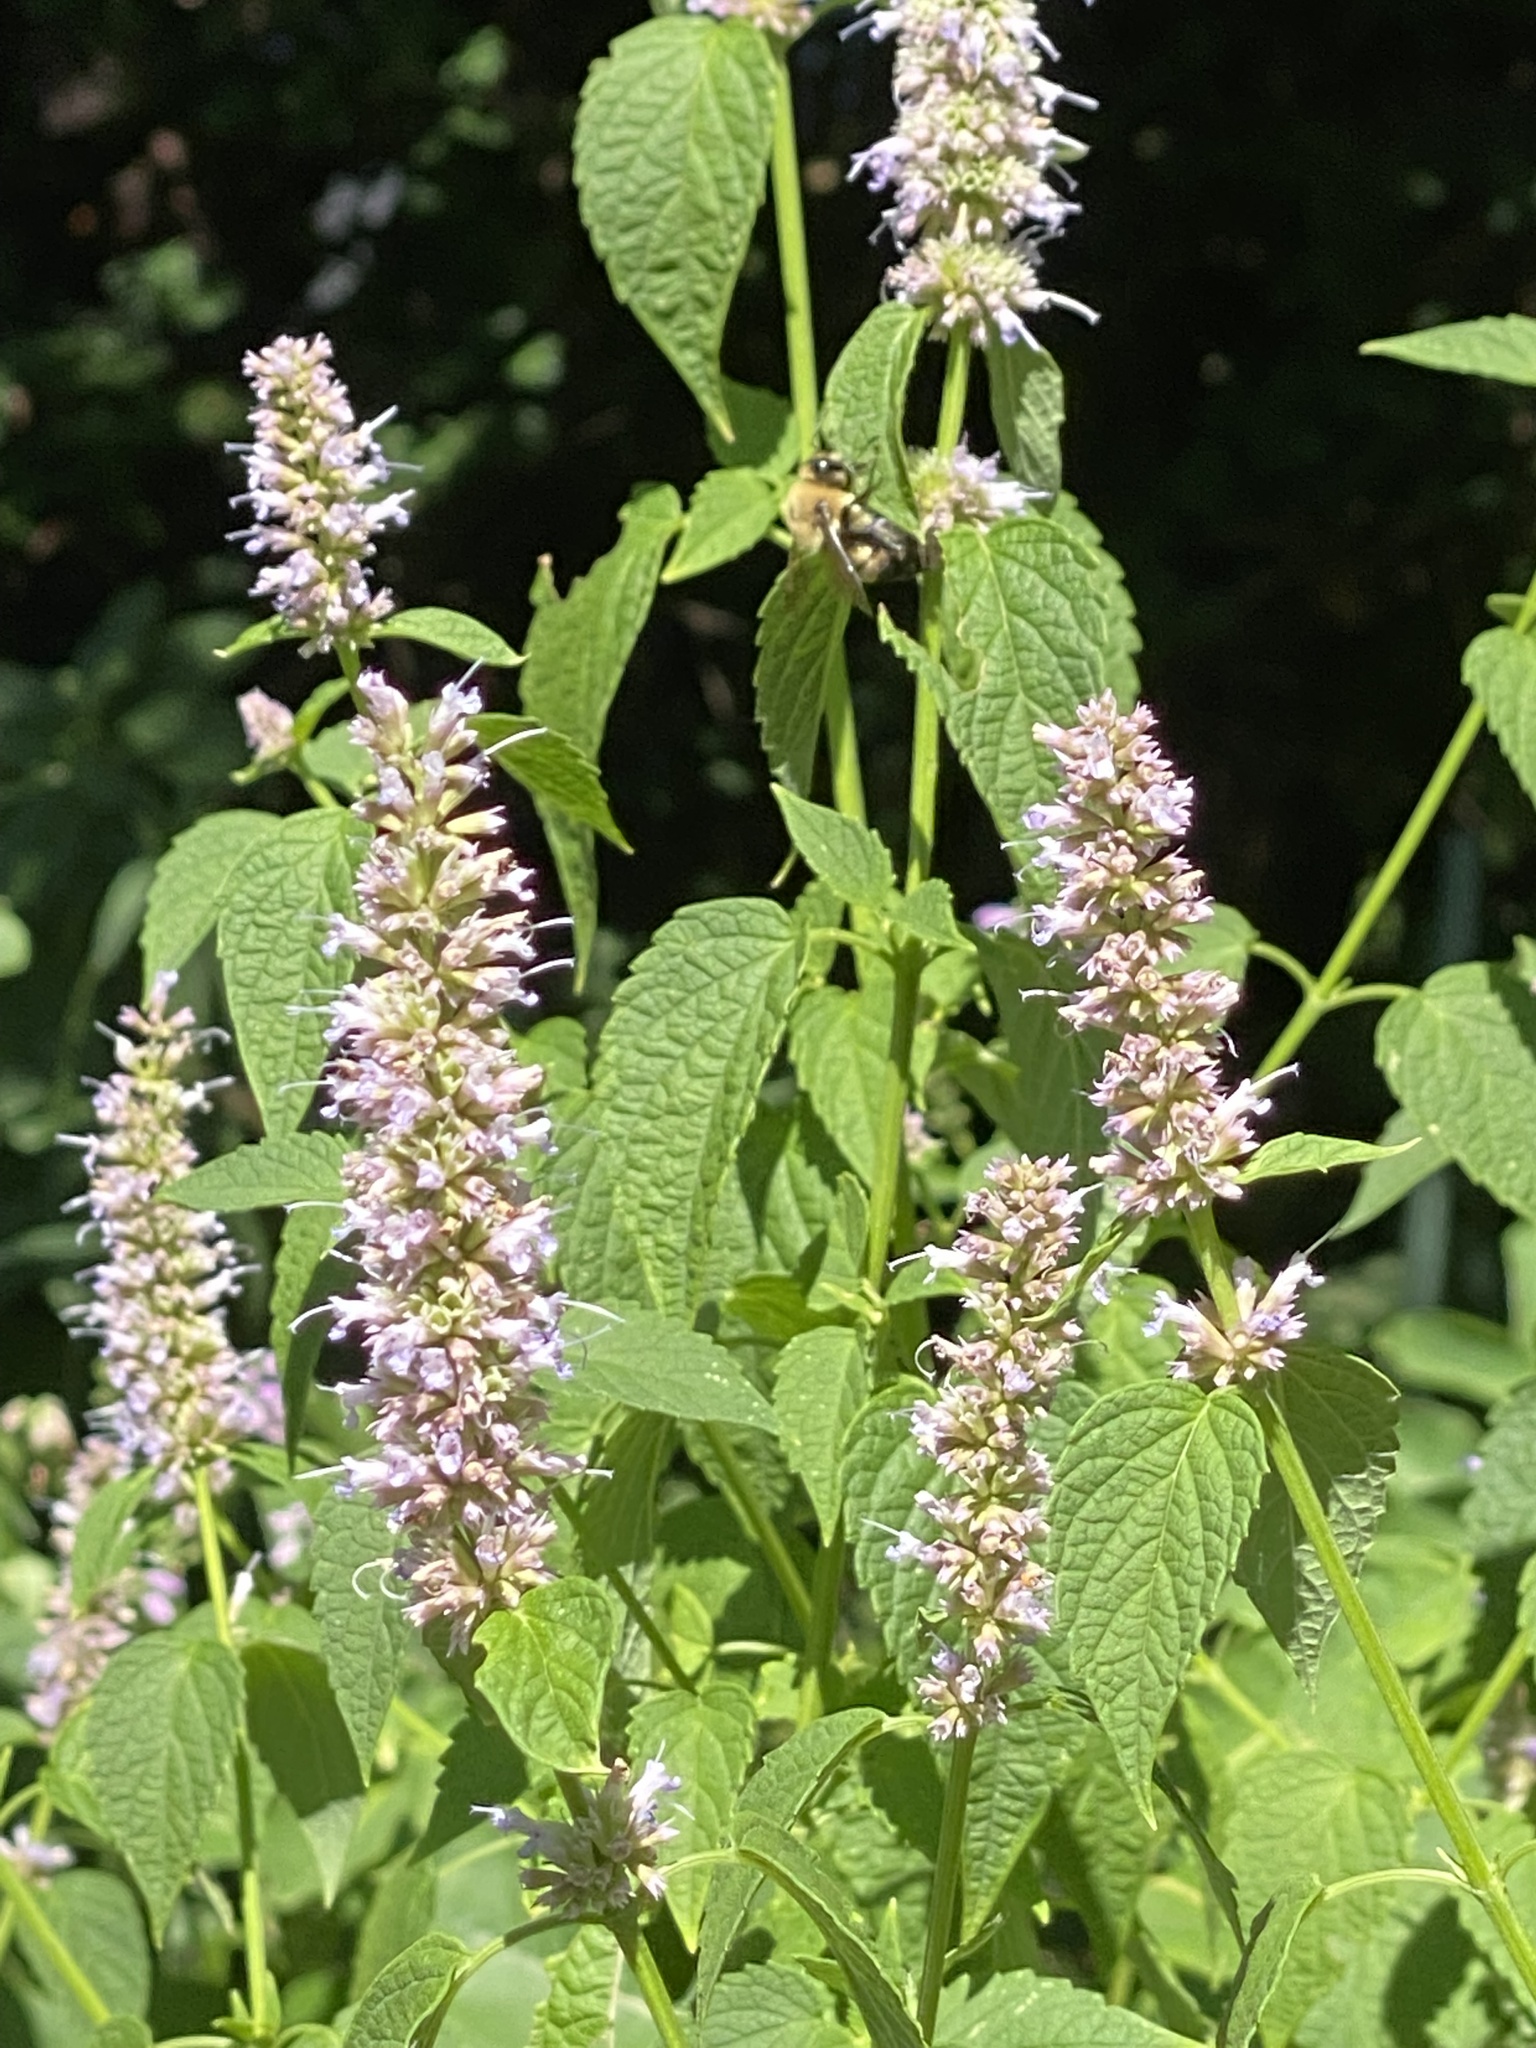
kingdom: Plantae
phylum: Tracheophyta
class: Magnoliopsida
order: Lamiales
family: Lamiaceae
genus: Agastache
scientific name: Agastache foeniculum
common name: Anise hyssop
